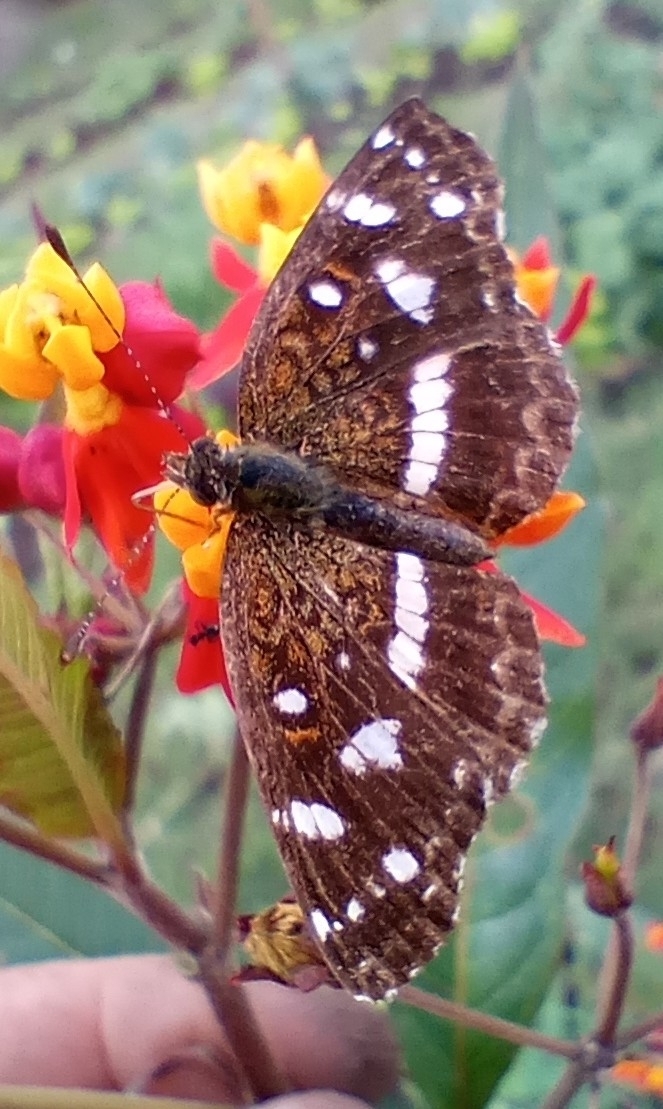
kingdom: Animalia
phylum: Arthropoda
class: Insecta
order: Lepidoptera
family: Nymphalidae
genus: Ortilia
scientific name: Ortilia ithra
